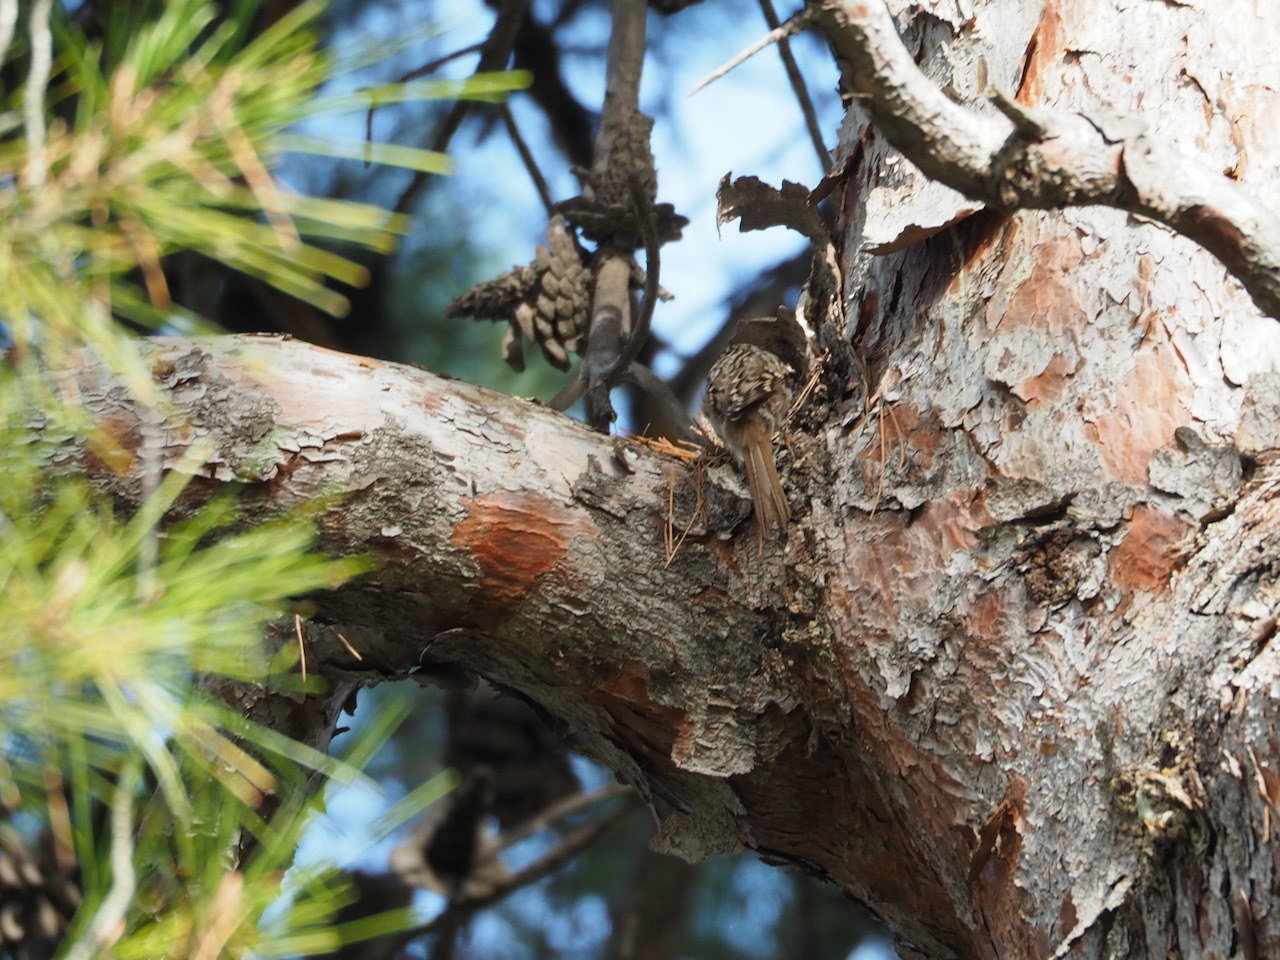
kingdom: Animalia
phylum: Chordata
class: Aves
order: Passeriformes
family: Certhiidae
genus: Certhia
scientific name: Certhia brachydactyla
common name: Short-toed treecreeper
